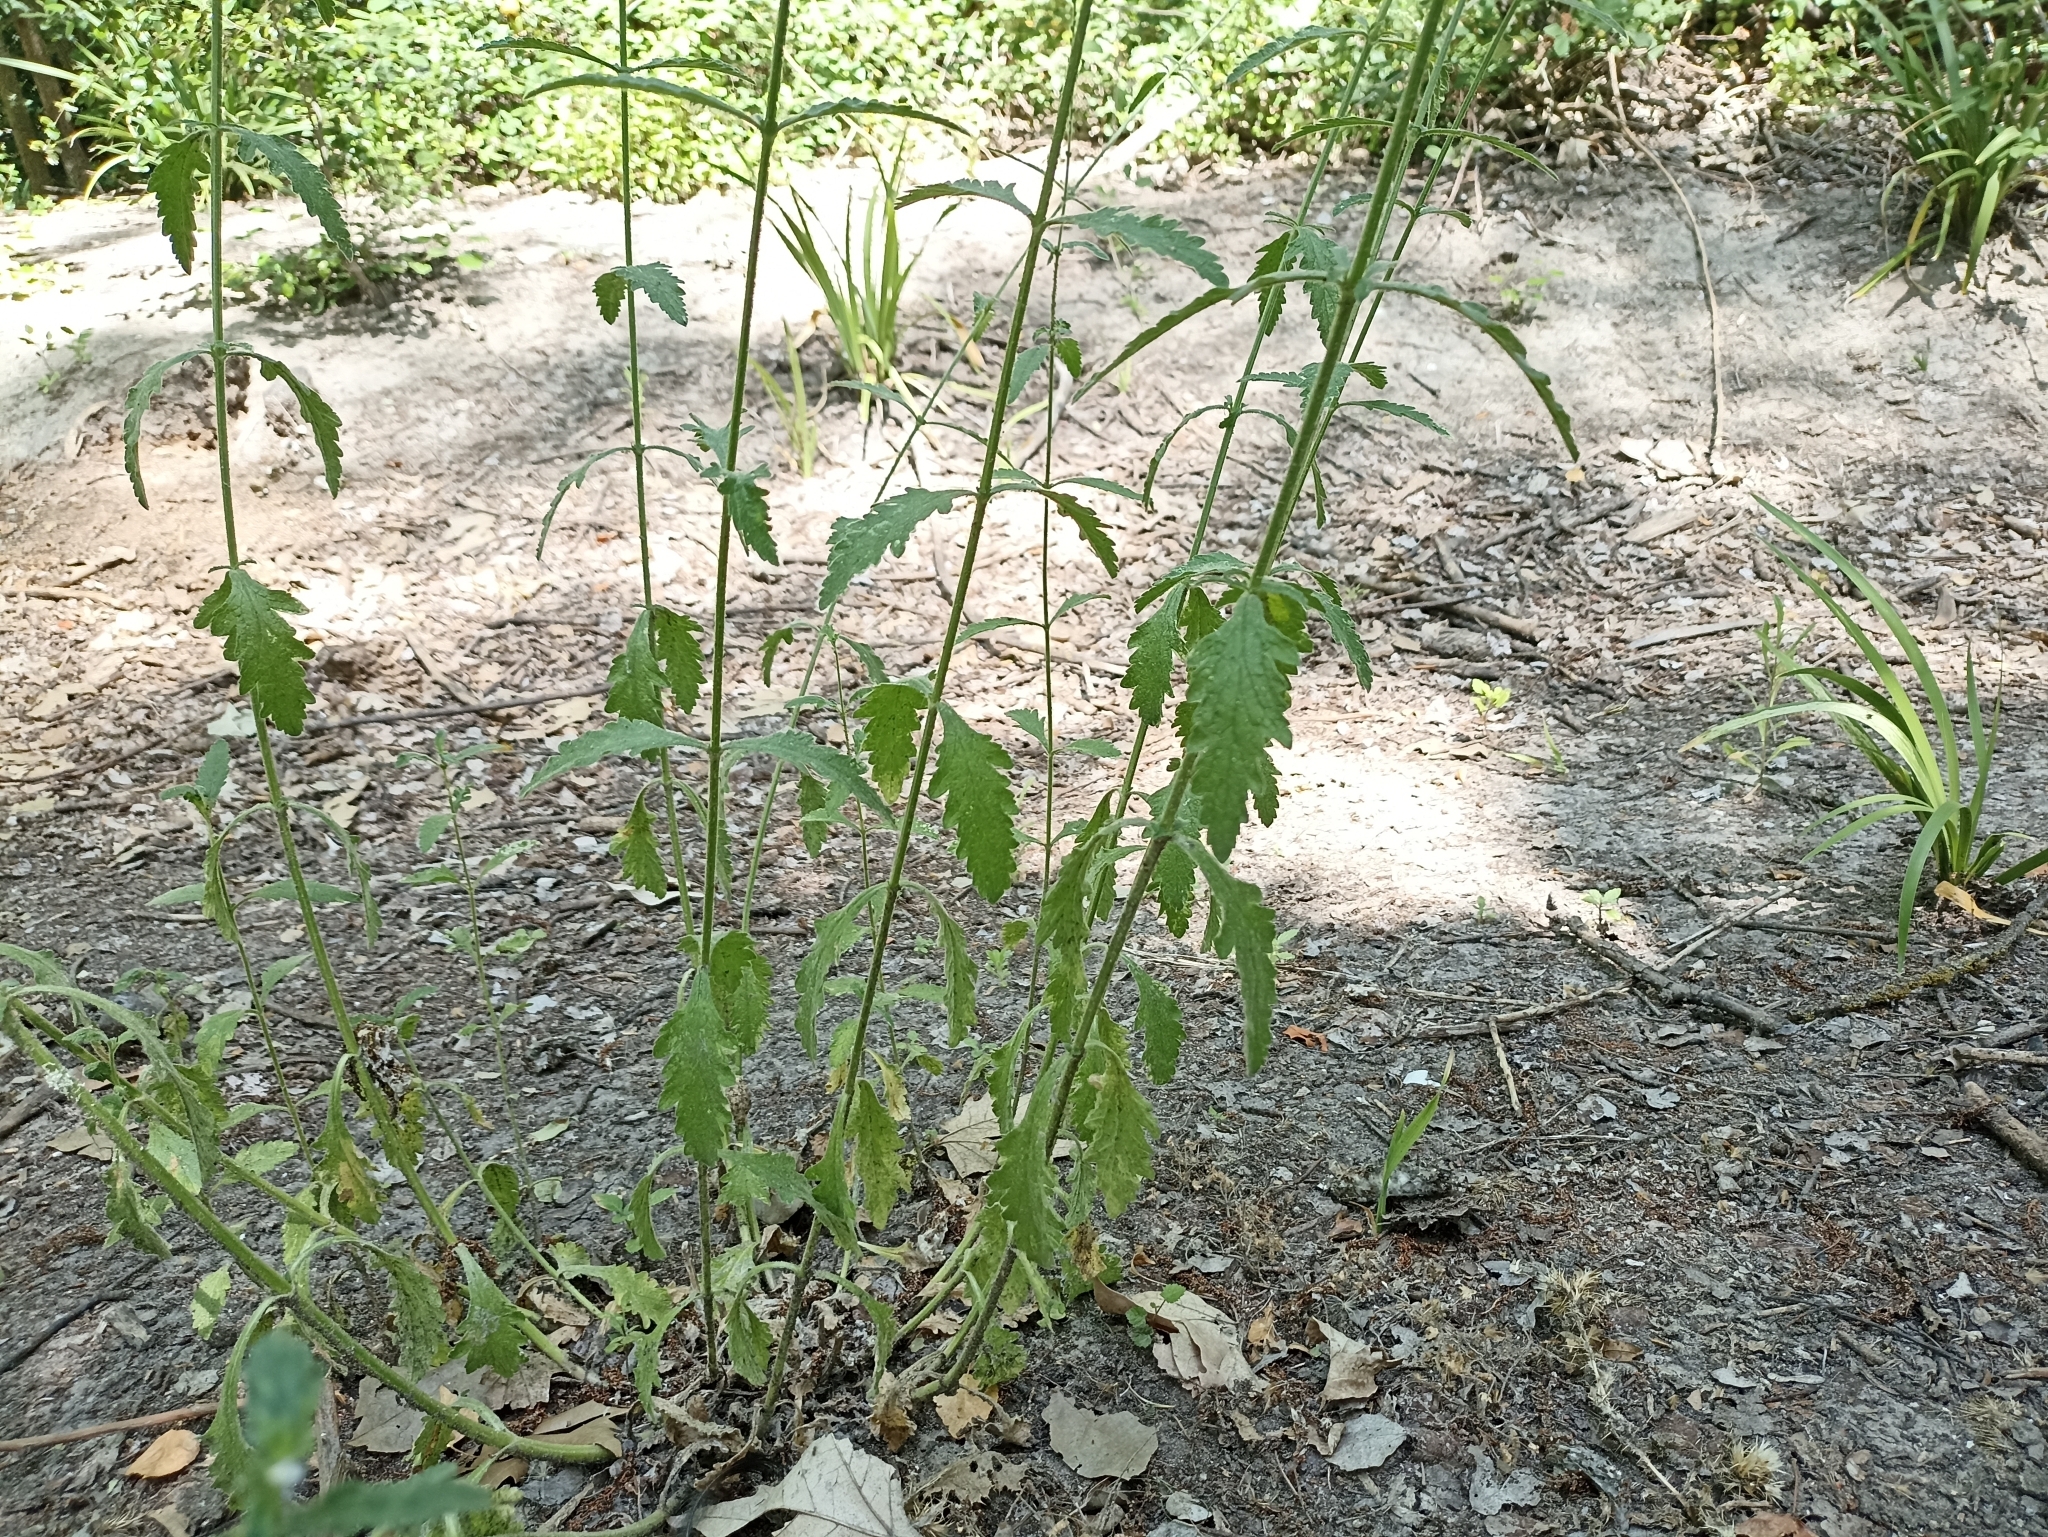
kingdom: Plantae
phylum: Tracheophyta
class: Magnoliopsida
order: Lamiales
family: Verbenaceae
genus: Verbena
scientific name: Verbena officinalis
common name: Vervain
